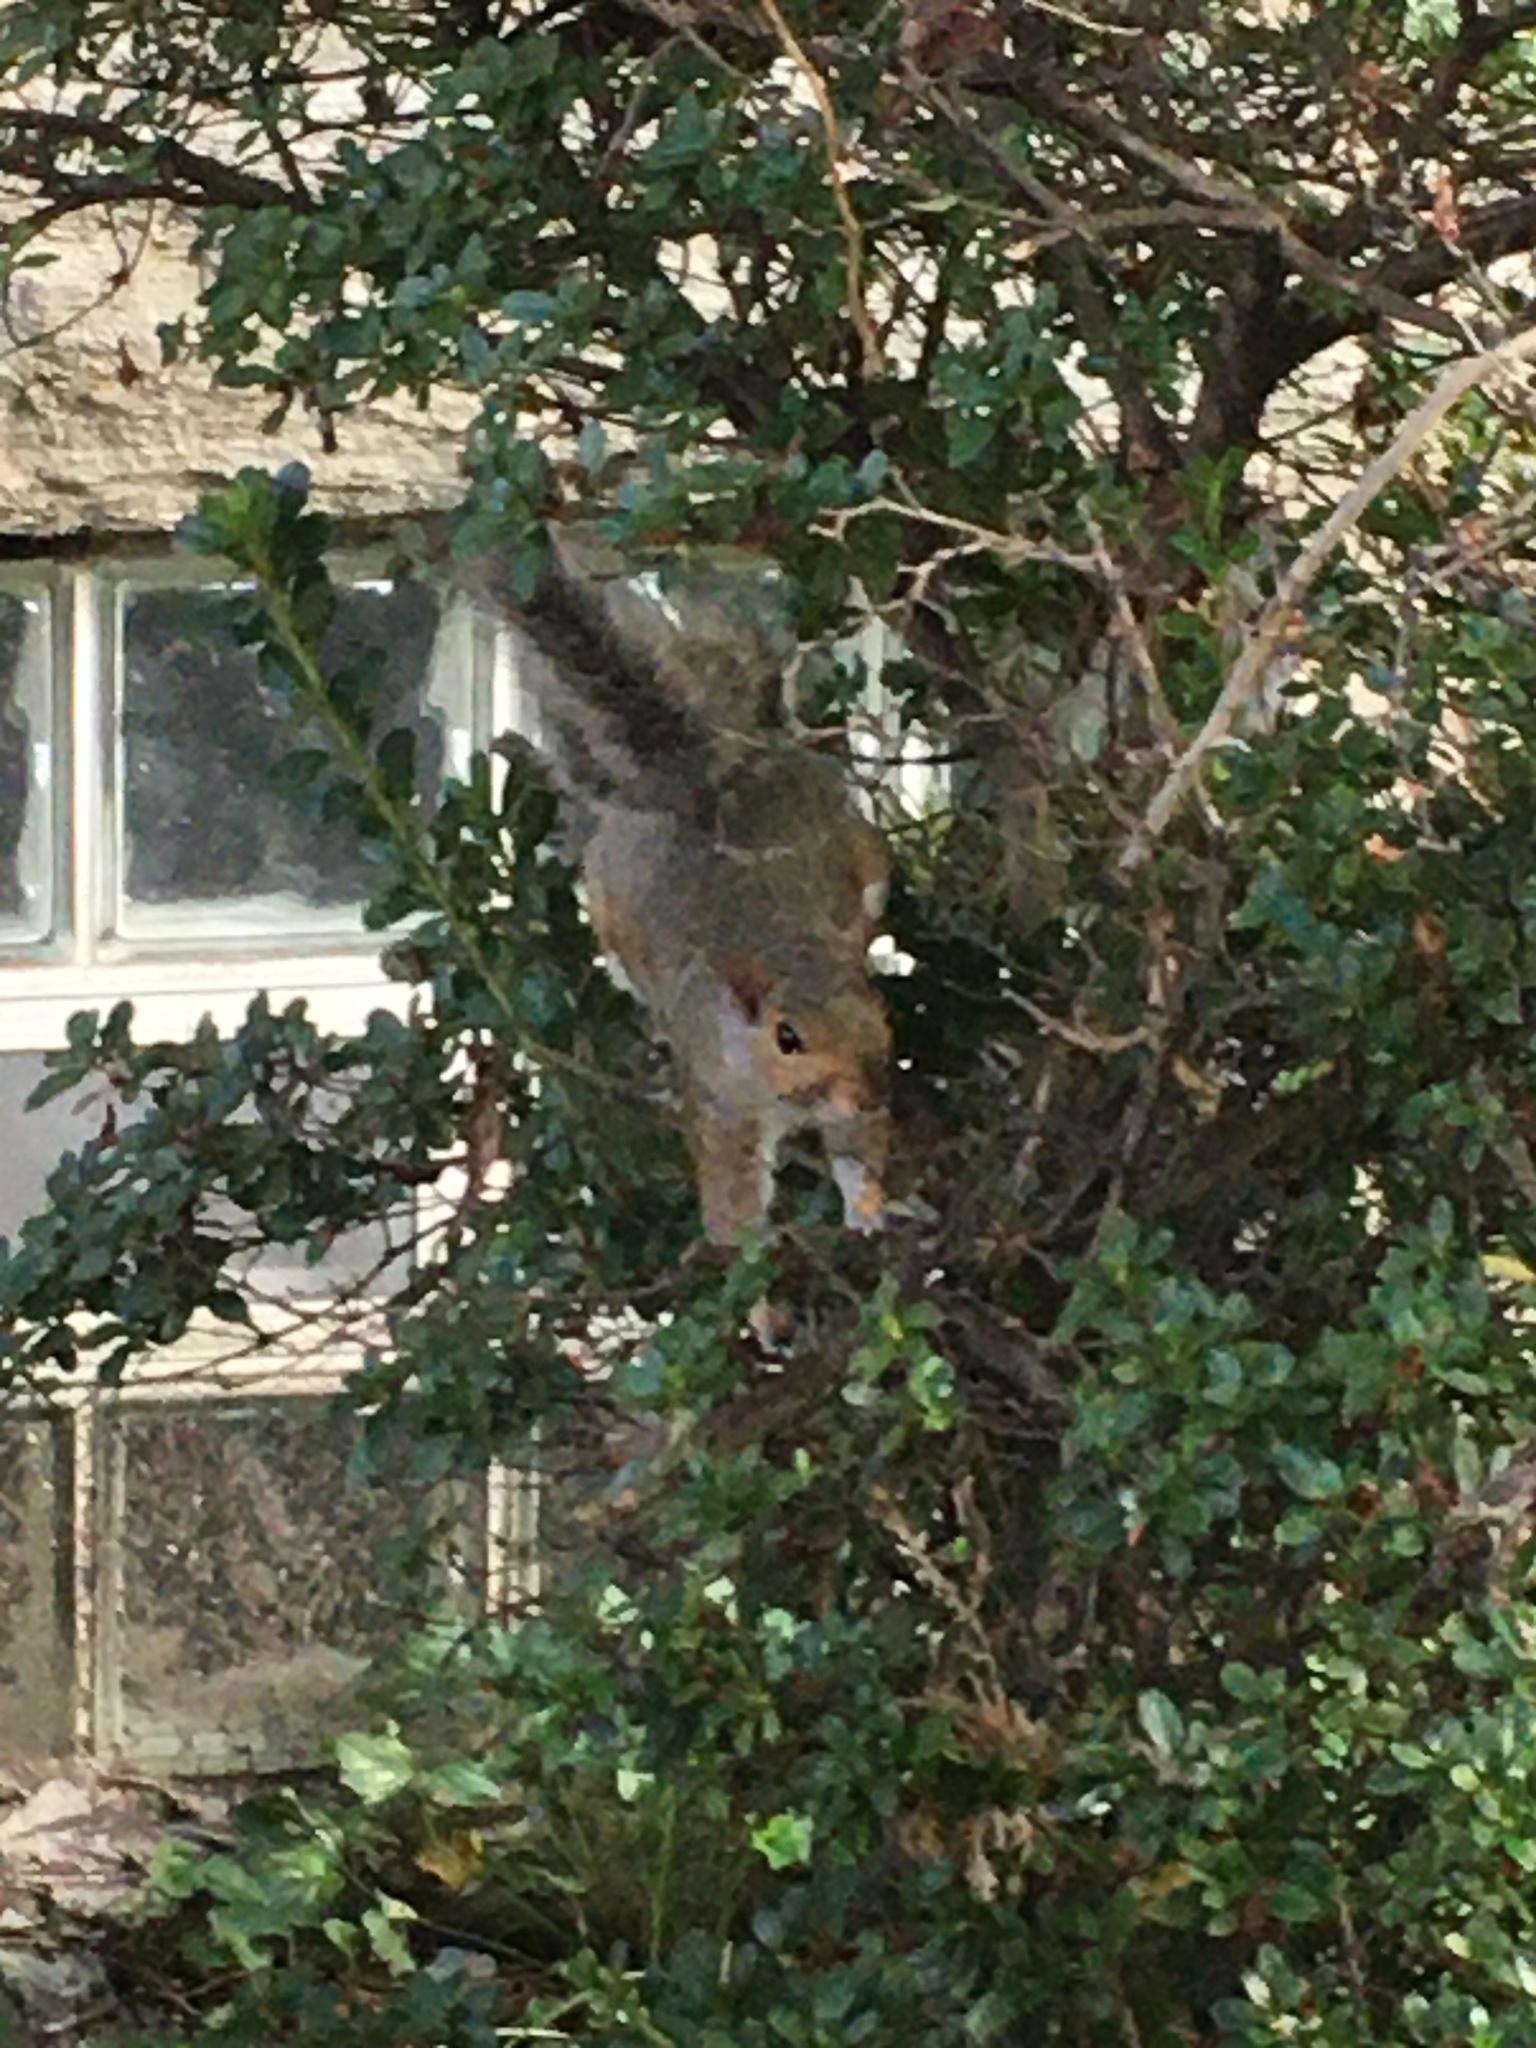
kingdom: Animalia
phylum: Chordata
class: Mammalia
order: Rodentia
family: Sciuridae
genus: Sciurus
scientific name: Sciurus carolinensis
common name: Eastern gray squirrel
